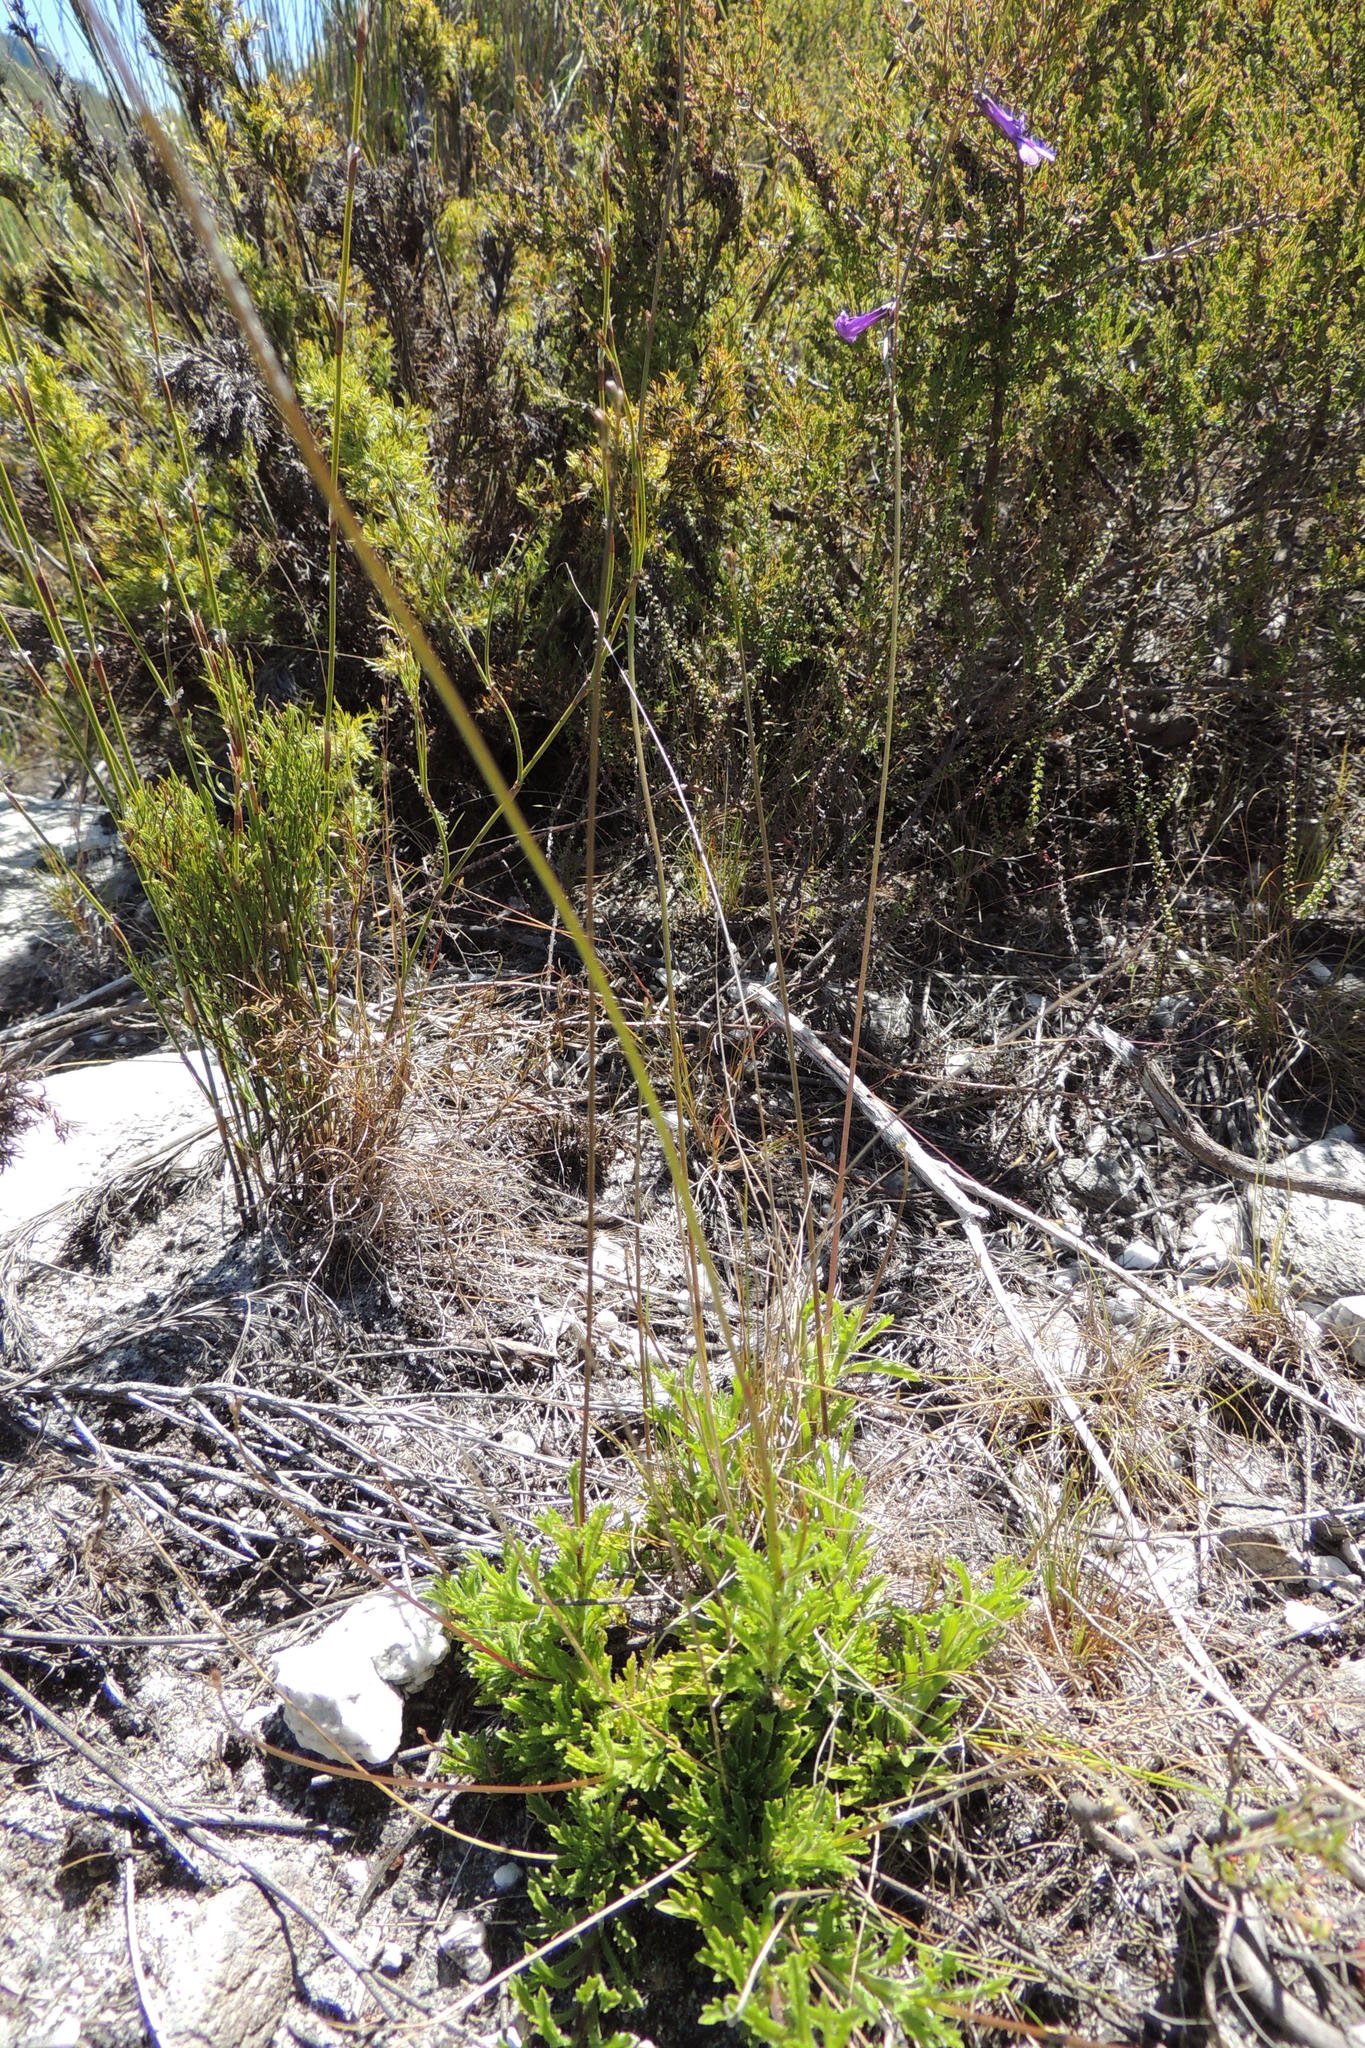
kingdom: Plantae
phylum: Tracheophyta
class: Magnoliopsida
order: Asterales
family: Campanulaceae
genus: Lobelia
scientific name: Lobelia chamaepitys
